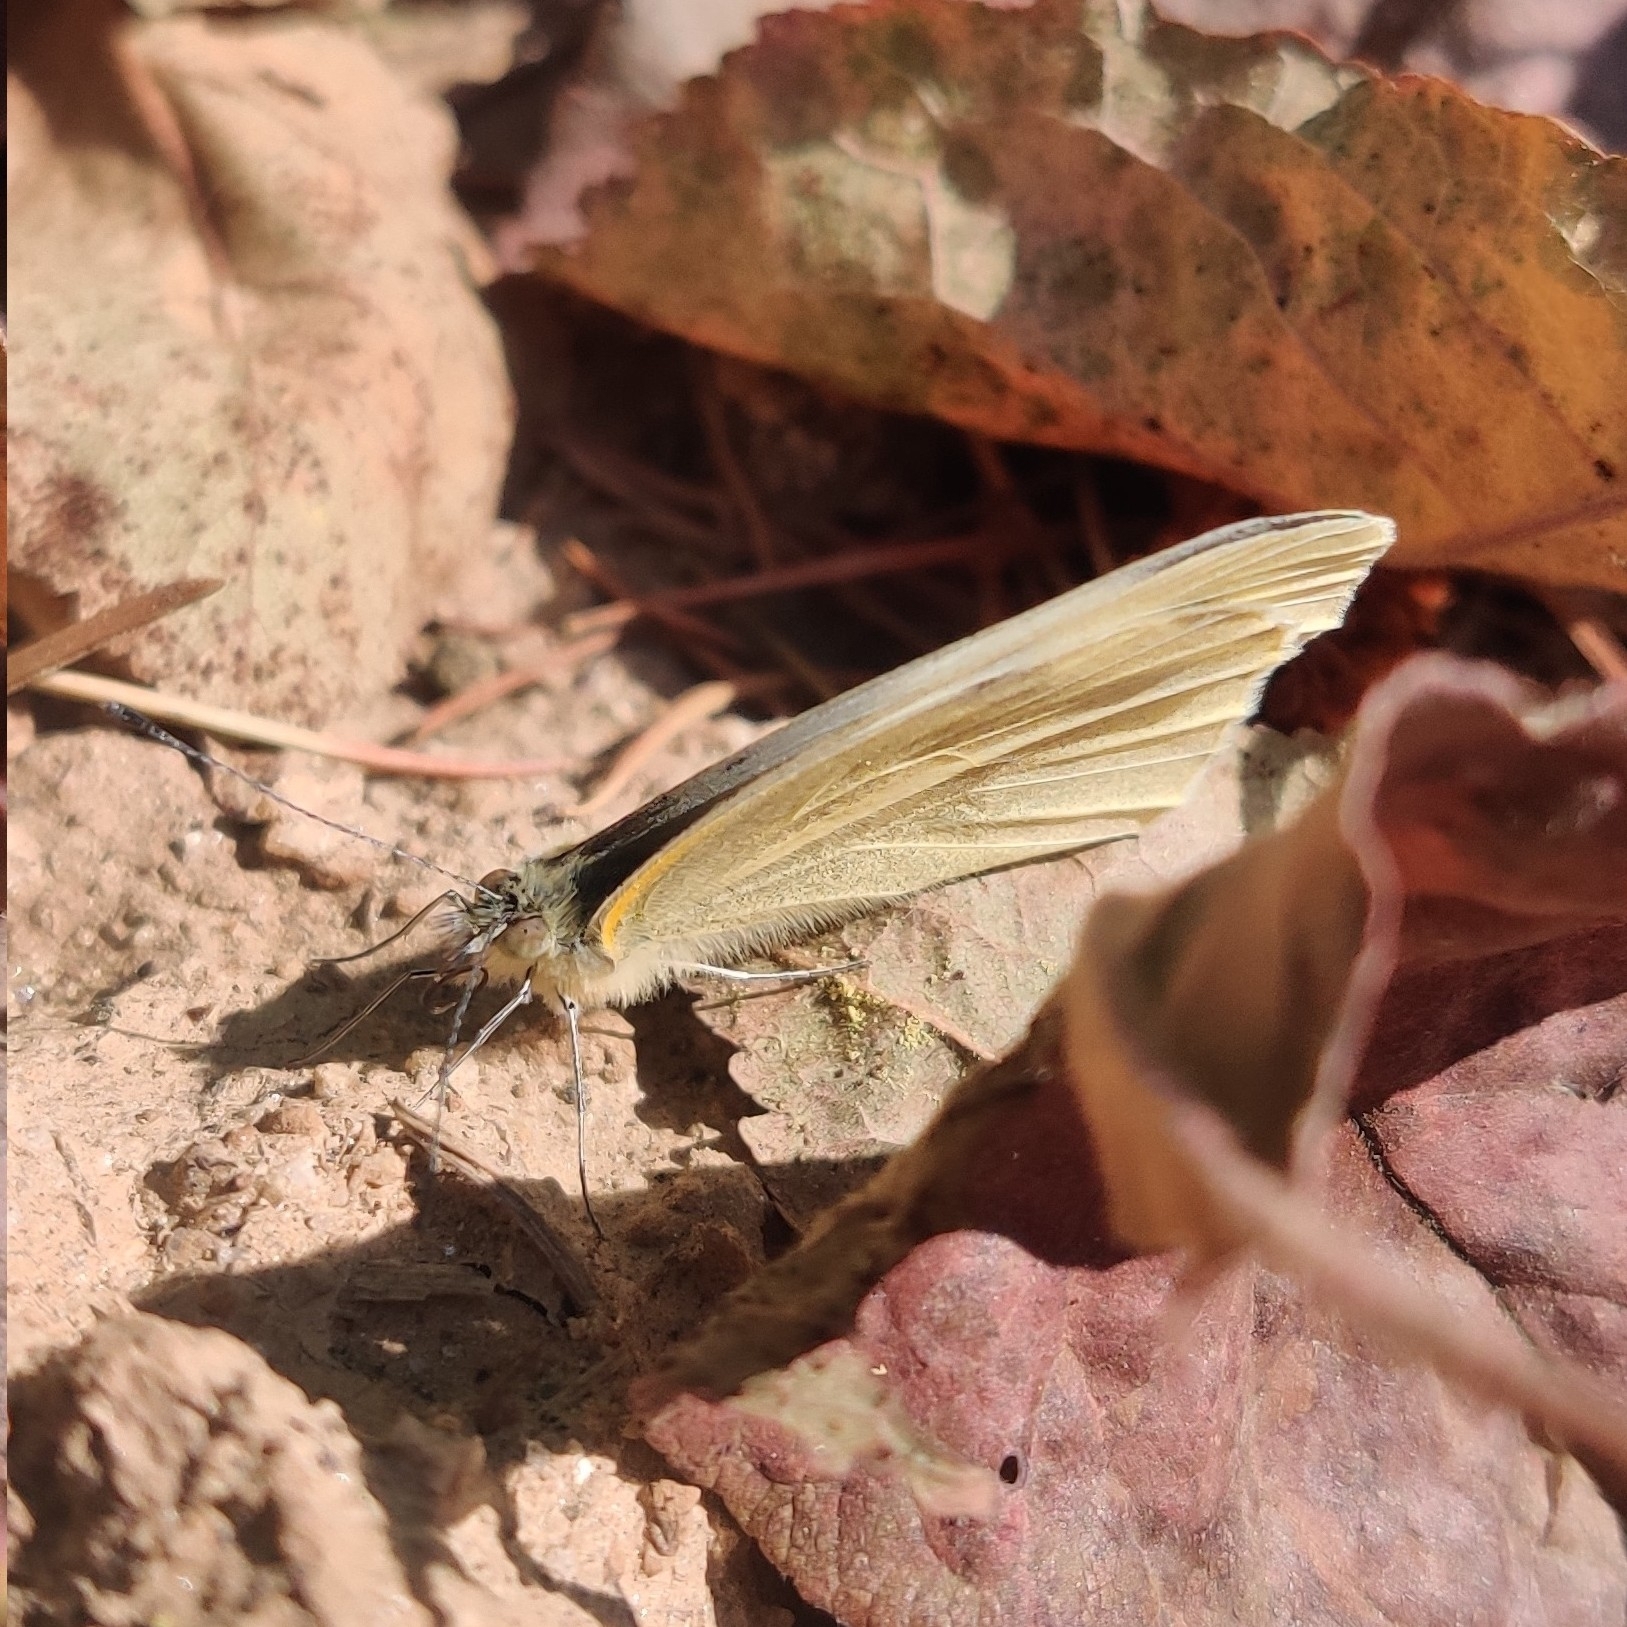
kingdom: Animalia
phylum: Arthropoda
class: Insecta
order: Lepidoptera
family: Pieridae
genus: Pieris
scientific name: Pieris canidia
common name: Indian cabbage white
